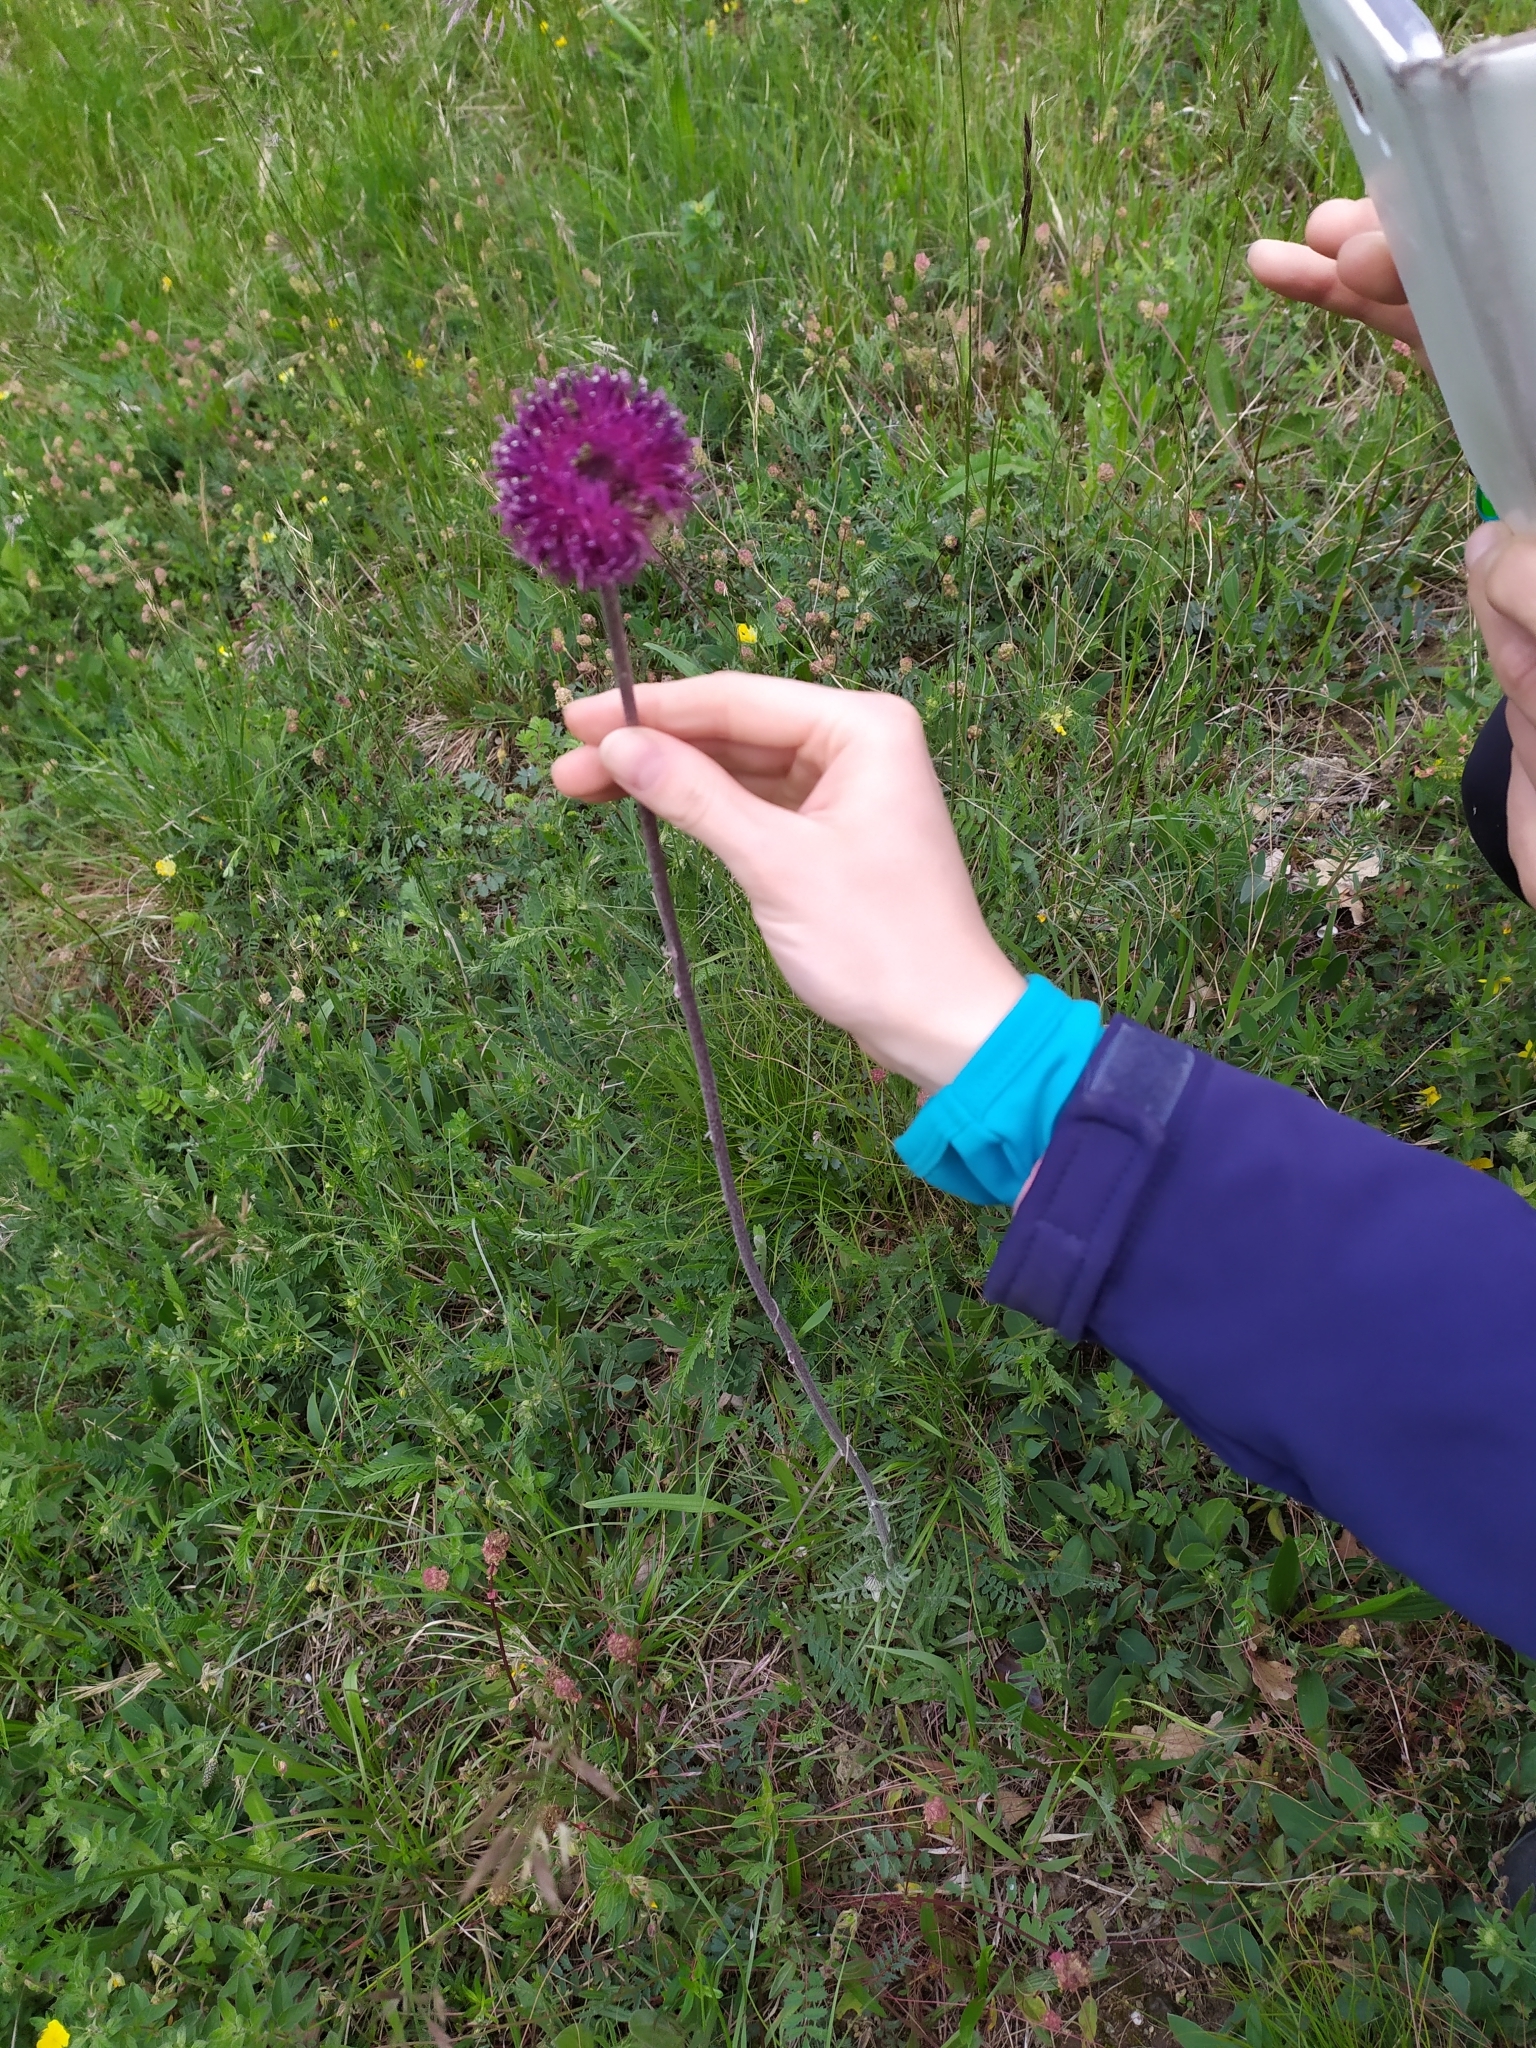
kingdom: Plantae
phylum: Tracheophyta
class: Magnoliopsida
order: Asterales
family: Asteraceae
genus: Jurinea
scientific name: Jurinea mollis
